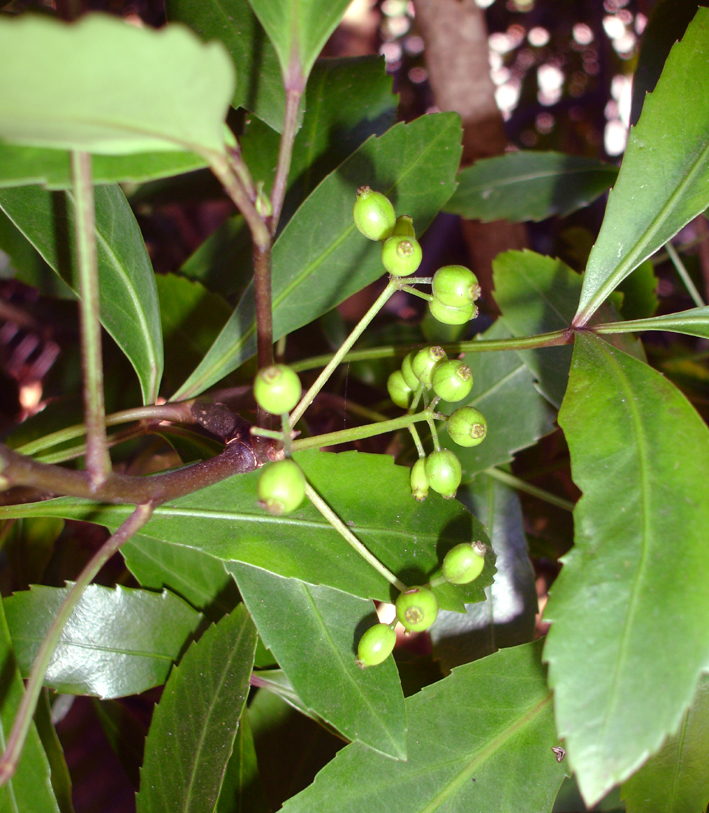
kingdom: Plantae
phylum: Tracheophyta
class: Magnoliopsida
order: Apiales
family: Araliaceae
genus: Pseudopanax
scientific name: Pseudopanax gilliesii
